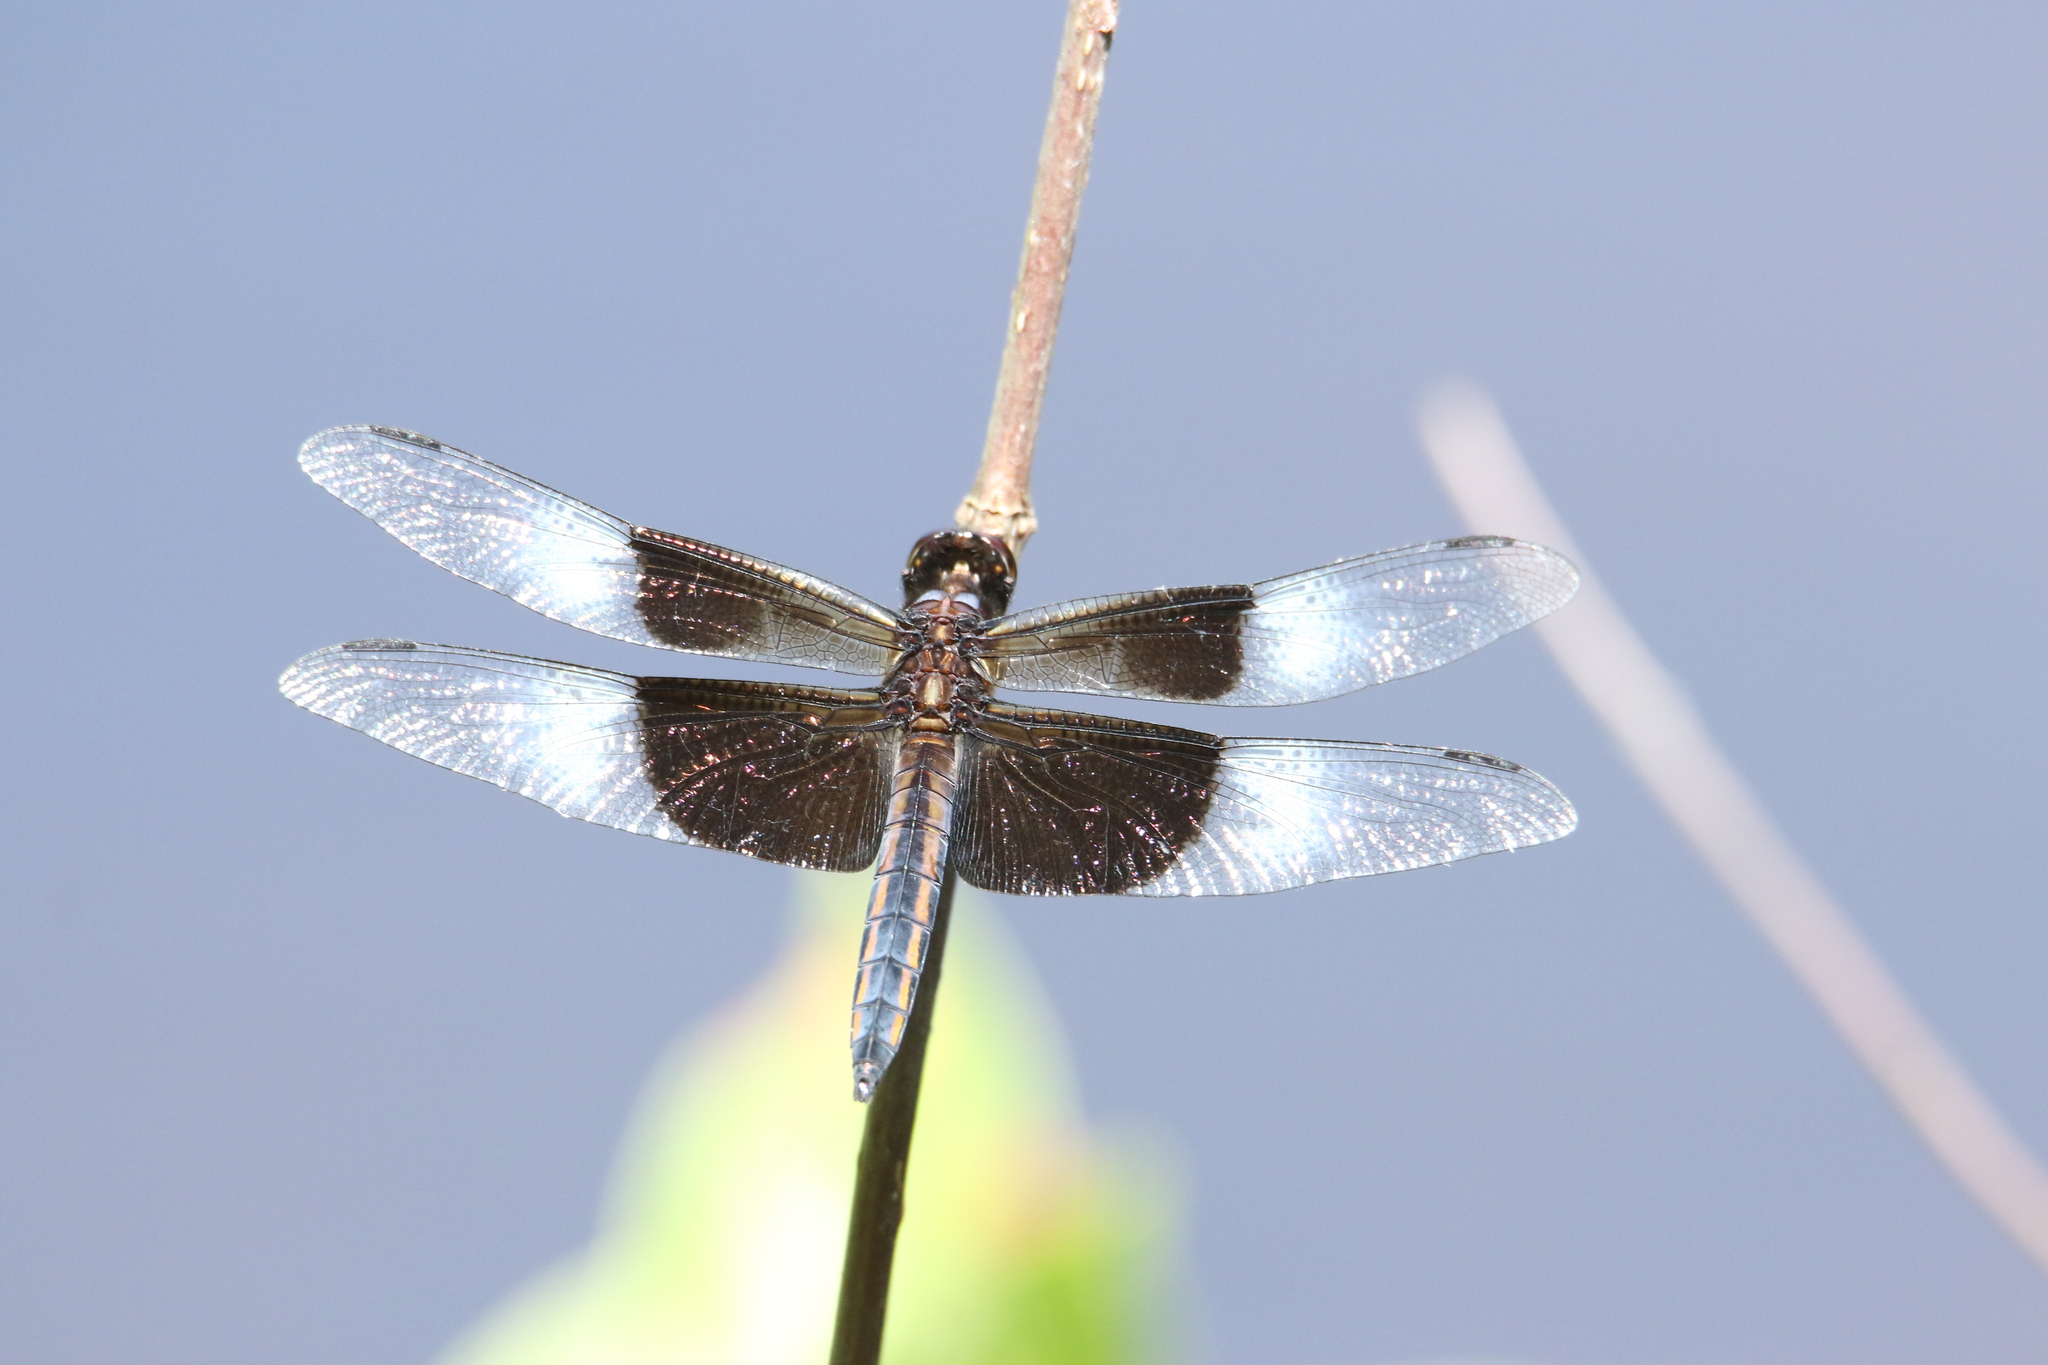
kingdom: Animalia
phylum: Arthropoda
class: Insecta
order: Odonata
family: Libellulidae
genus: Libellula
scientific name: Libellula luctuosa
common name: Widow skimmer
